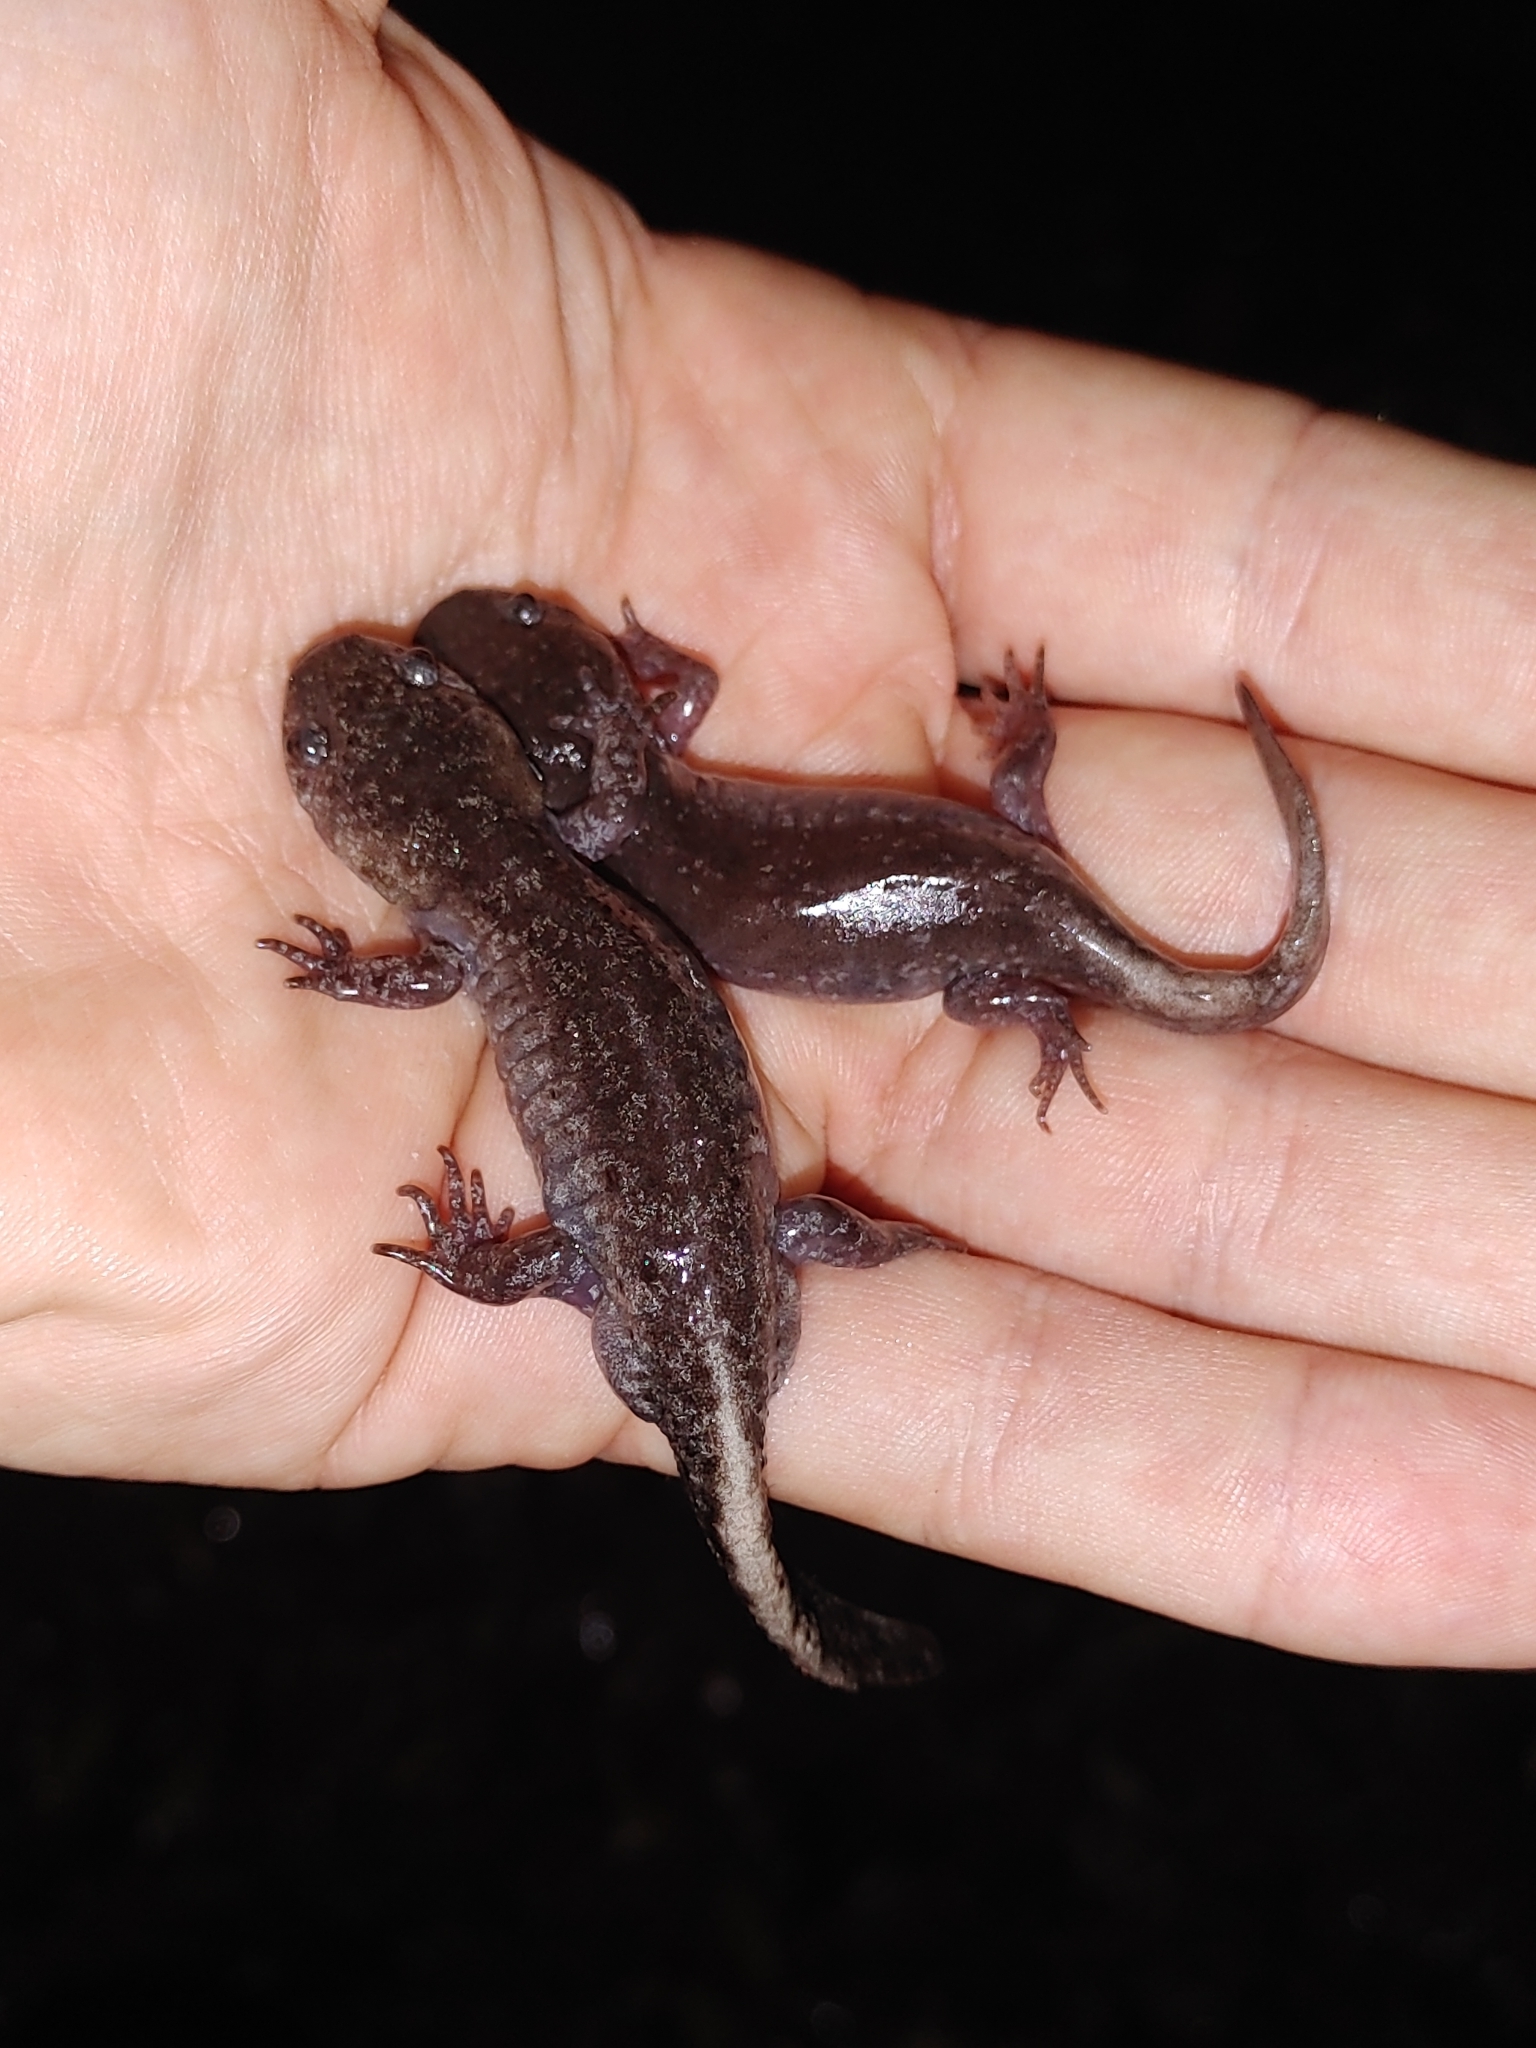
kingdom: Animalia
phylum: Chordata
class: Amphibia
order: Caudata
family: Ambystomatidae
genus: Ambystoma
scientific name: Ambystoma talpoideum
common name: Mole salamander
